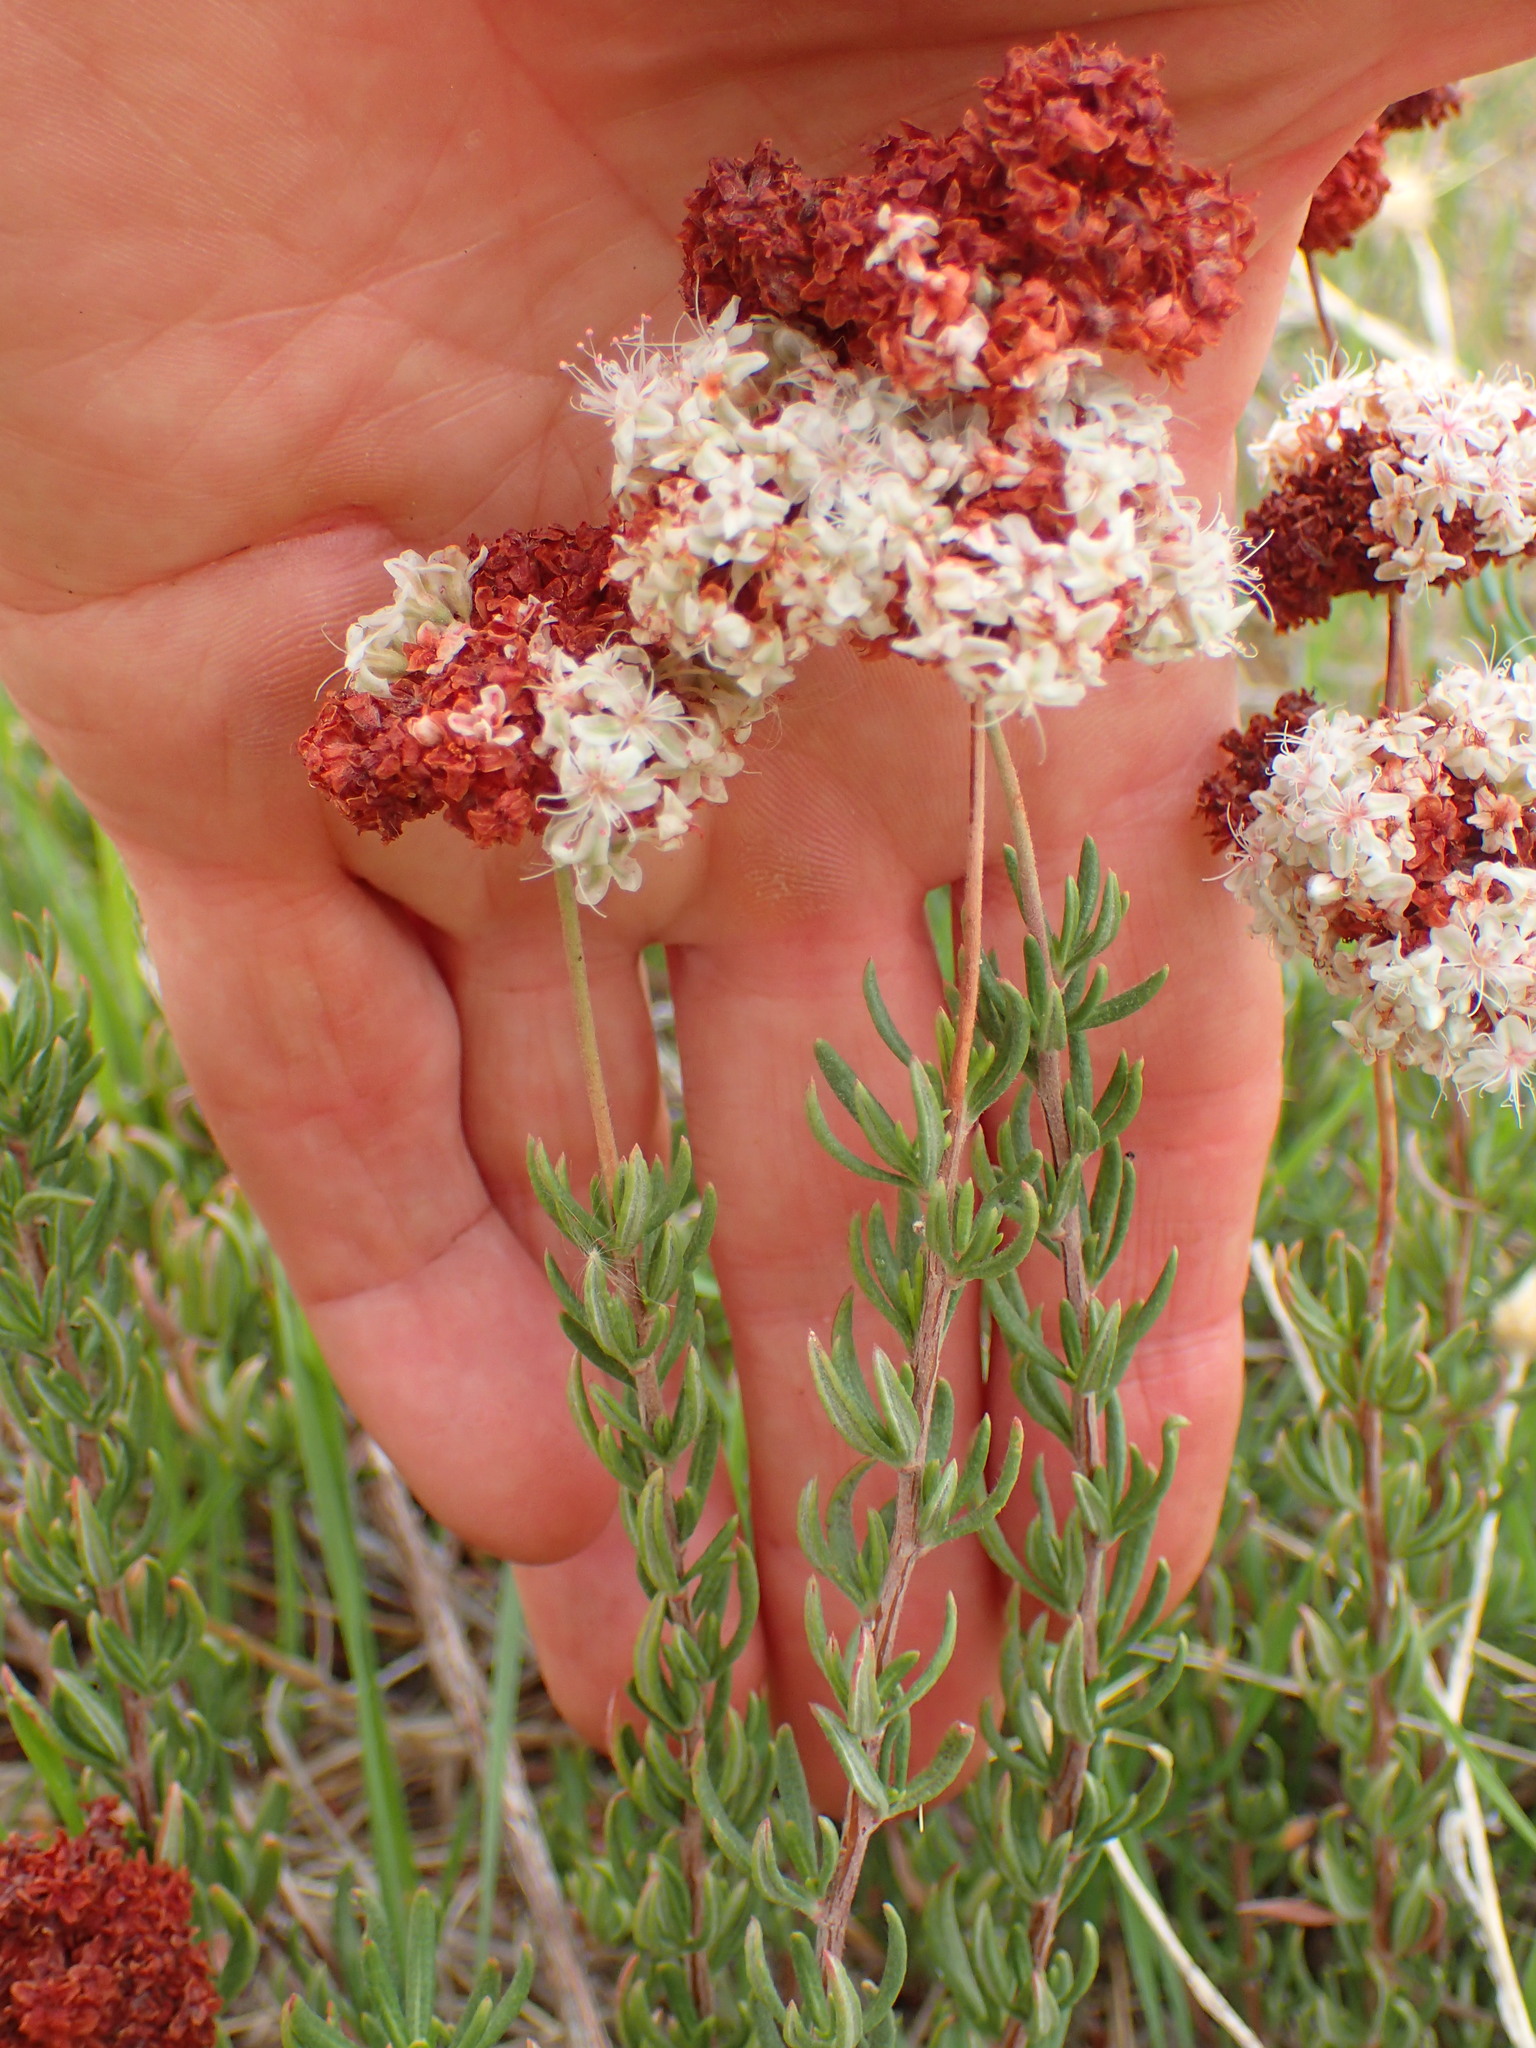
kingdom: Plantae
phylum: Tracheophyta
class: Magnoliopsida
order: Caryophyllales
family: Polygonaceae
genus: Eriogonum
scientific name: Eriogonum fasciculatum
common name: California wild buckwheat
